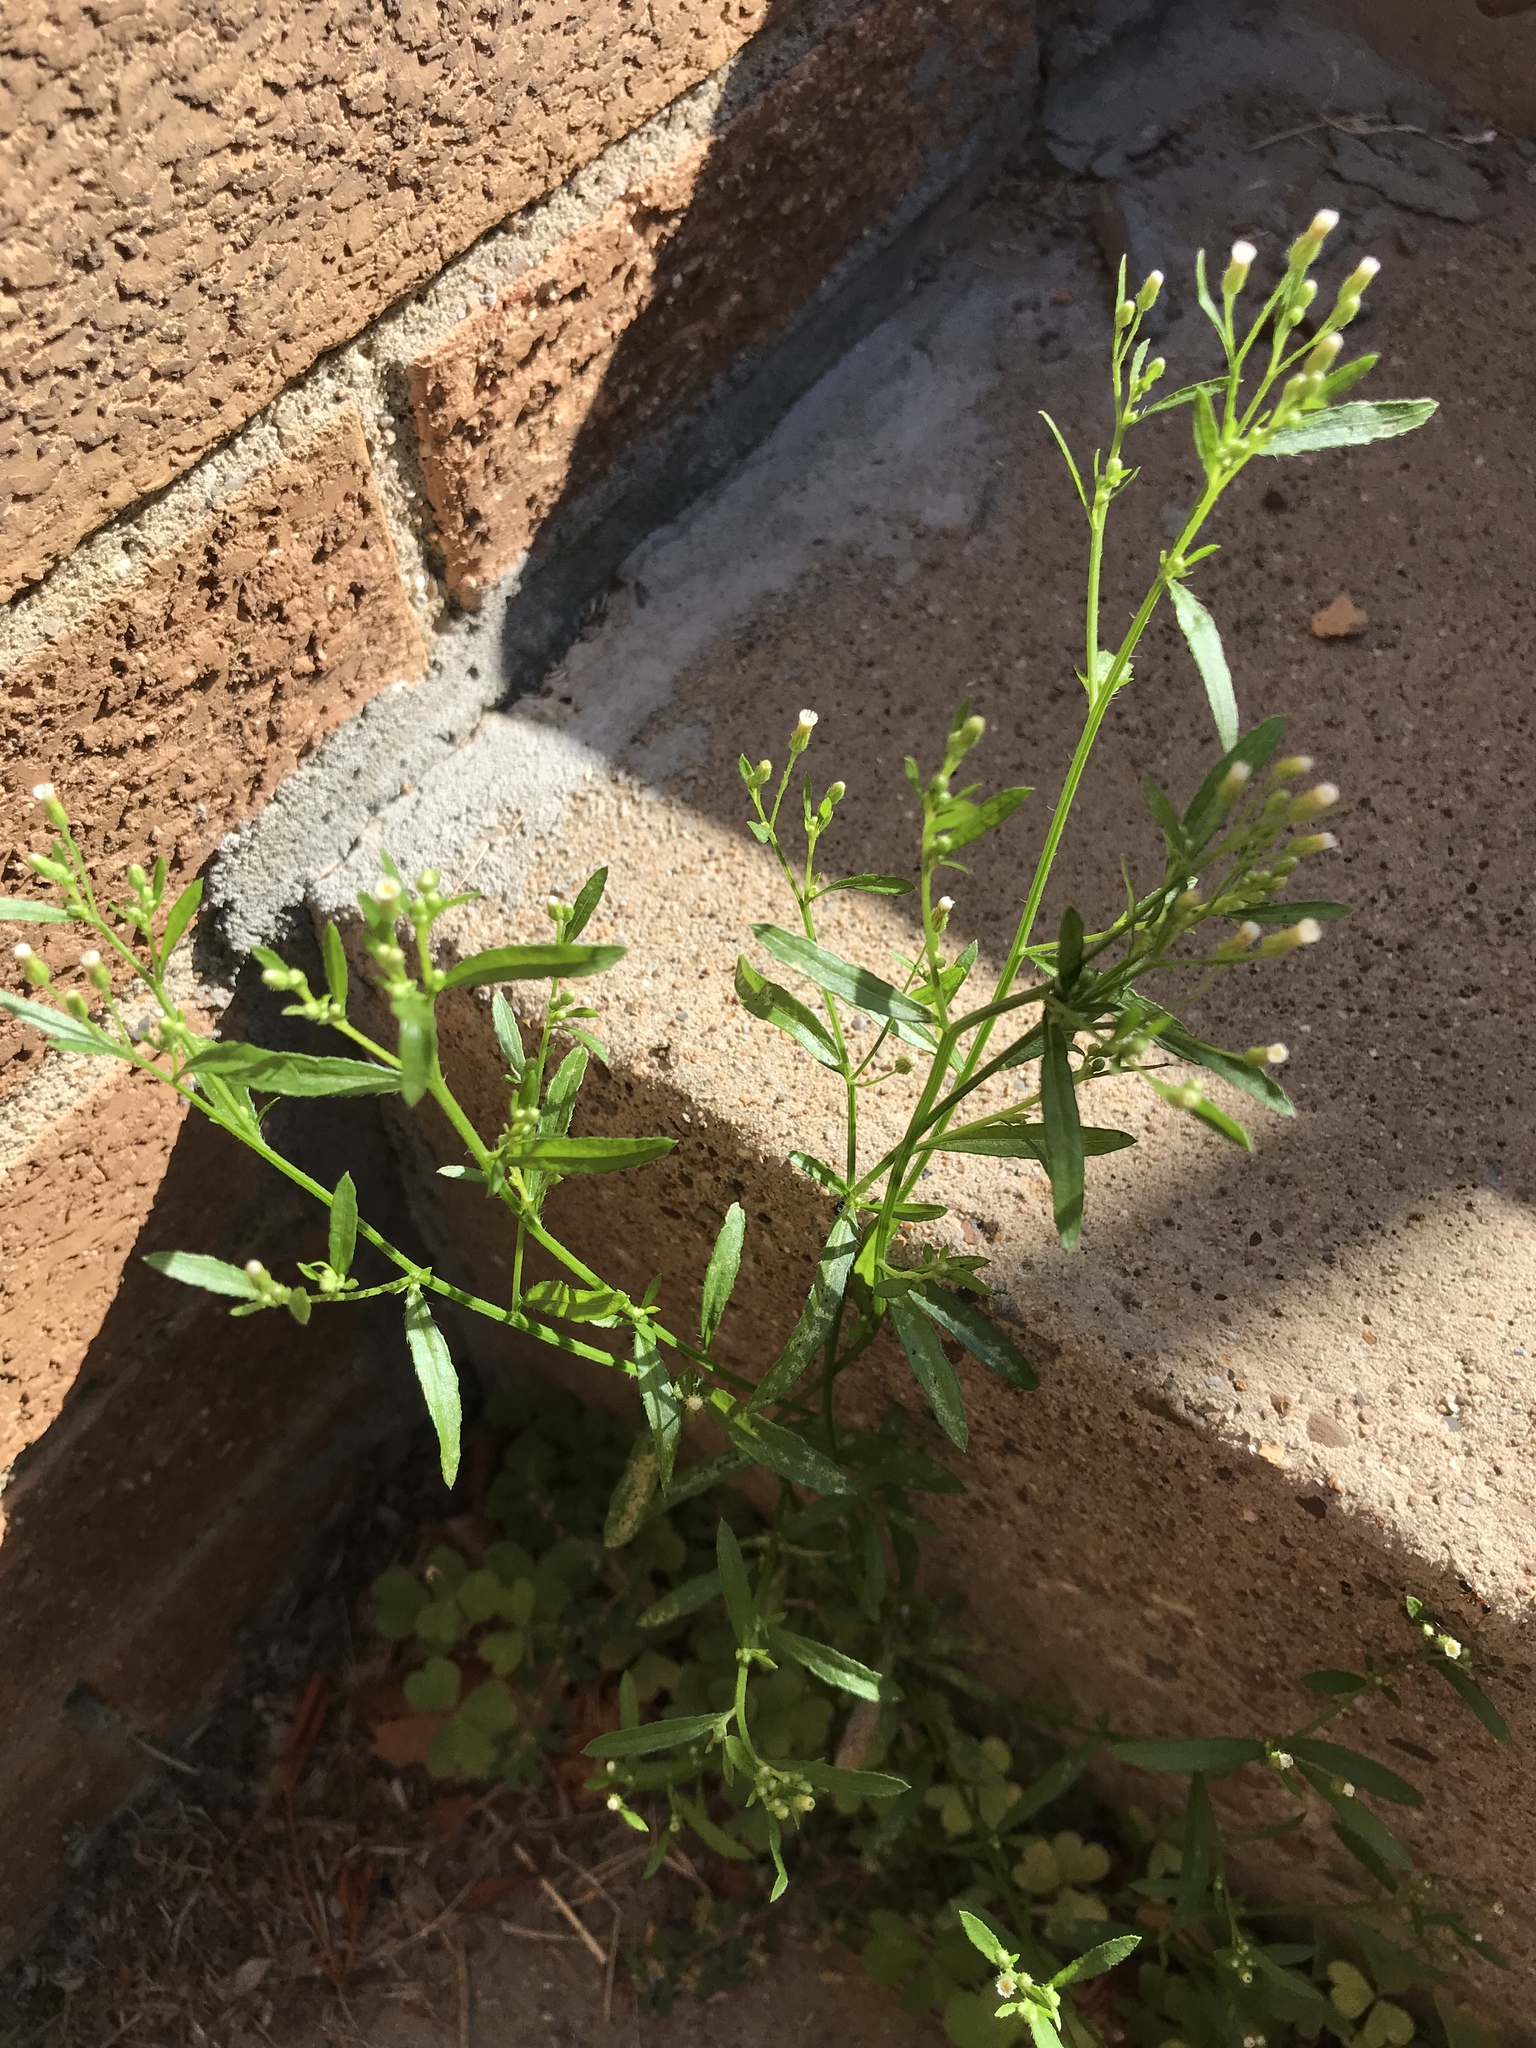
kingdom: Plantae
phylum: Tracheophyta
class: Magnoliopsida
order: Asterales
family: Asteraceae
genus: Erigeron
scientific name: Erigeron canadensis
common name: Canadian fleabane
